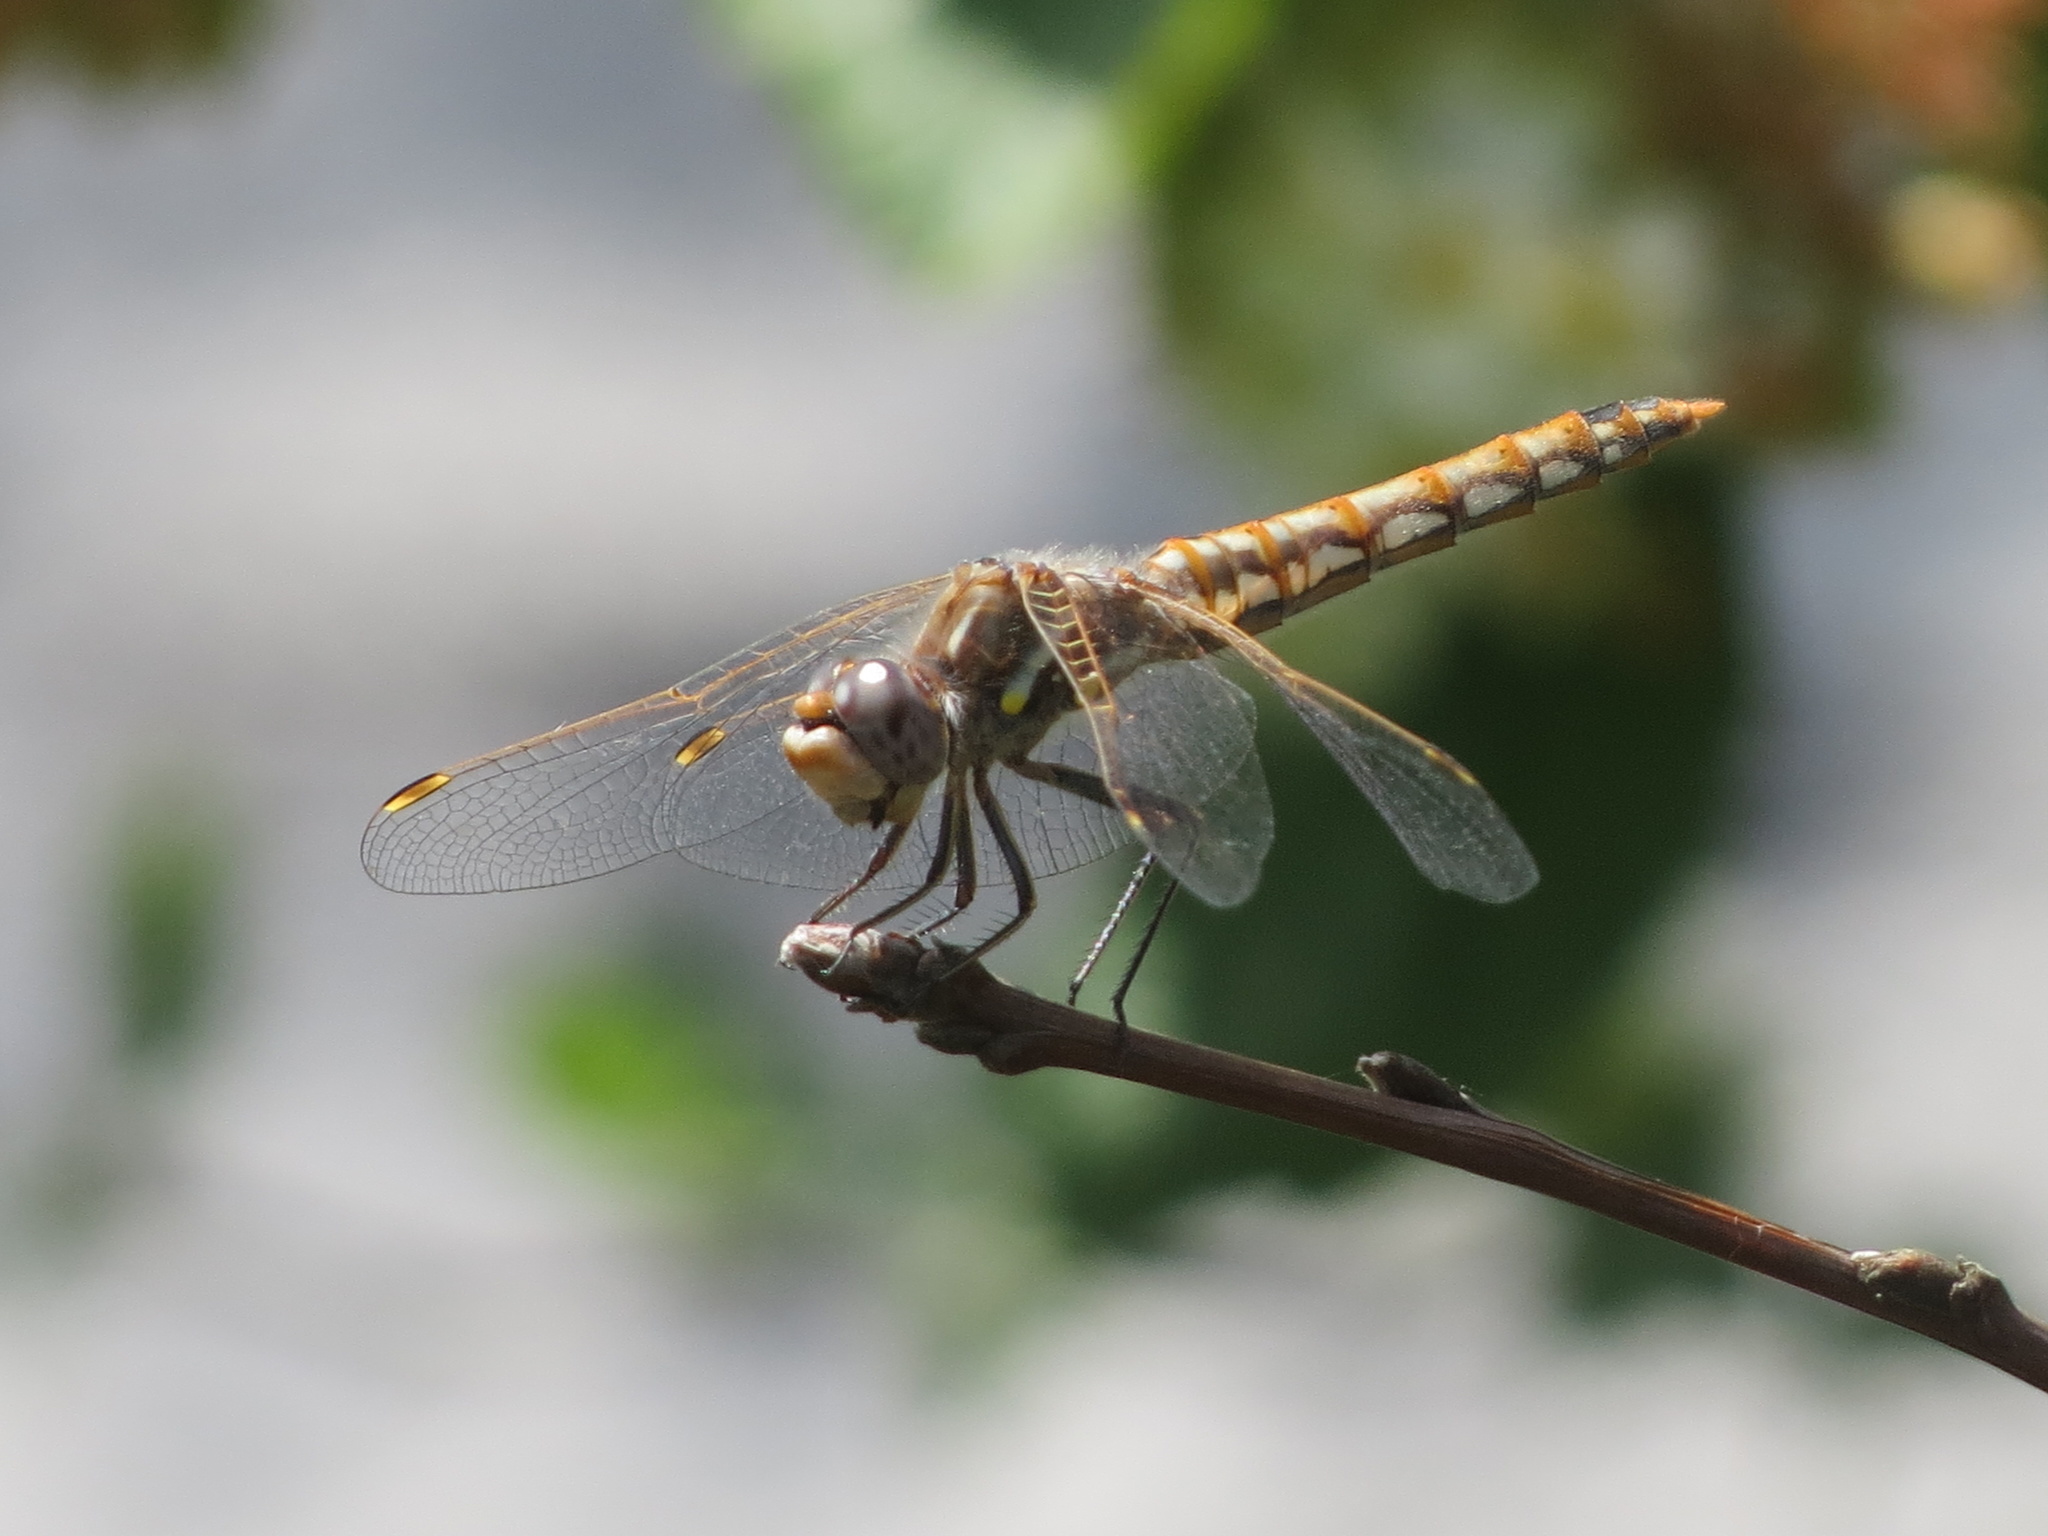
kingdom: Animalia
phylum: Arthropoda
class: Insecta
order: Odonata
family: Libellulidae
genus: Sympetrum
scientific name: Sympetrum corruptum
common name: Variegated meadowhawk
